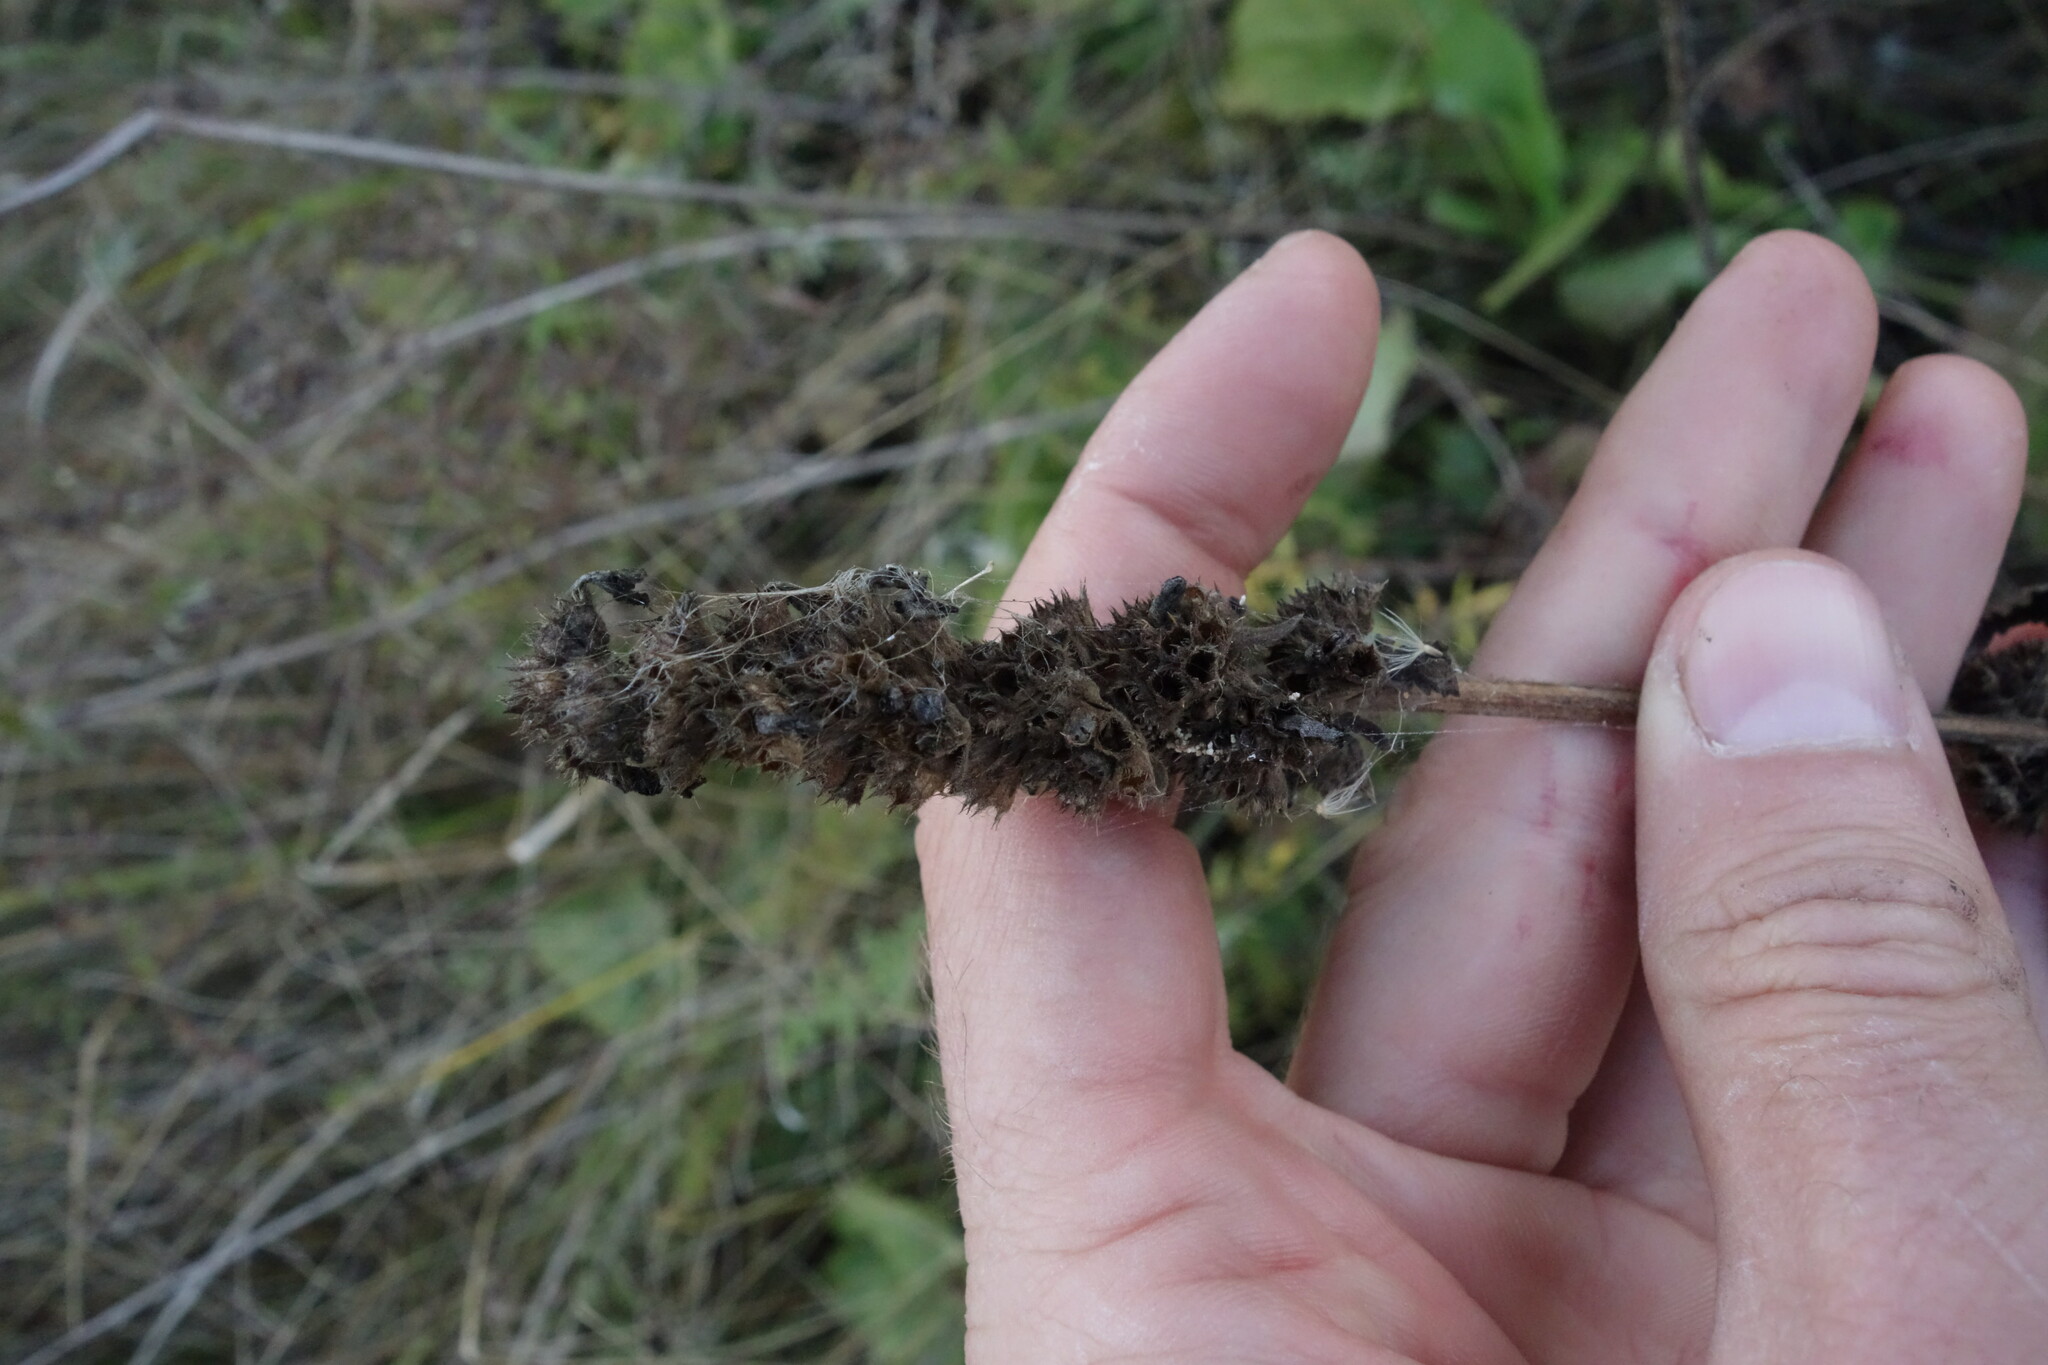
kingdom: Plantae
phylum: Tracheophyta
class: Magnoliopsida
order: Lamiales
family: Lamiaceae
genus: Betonica
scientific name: Betonica officinalis
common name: Bishop's-wort
